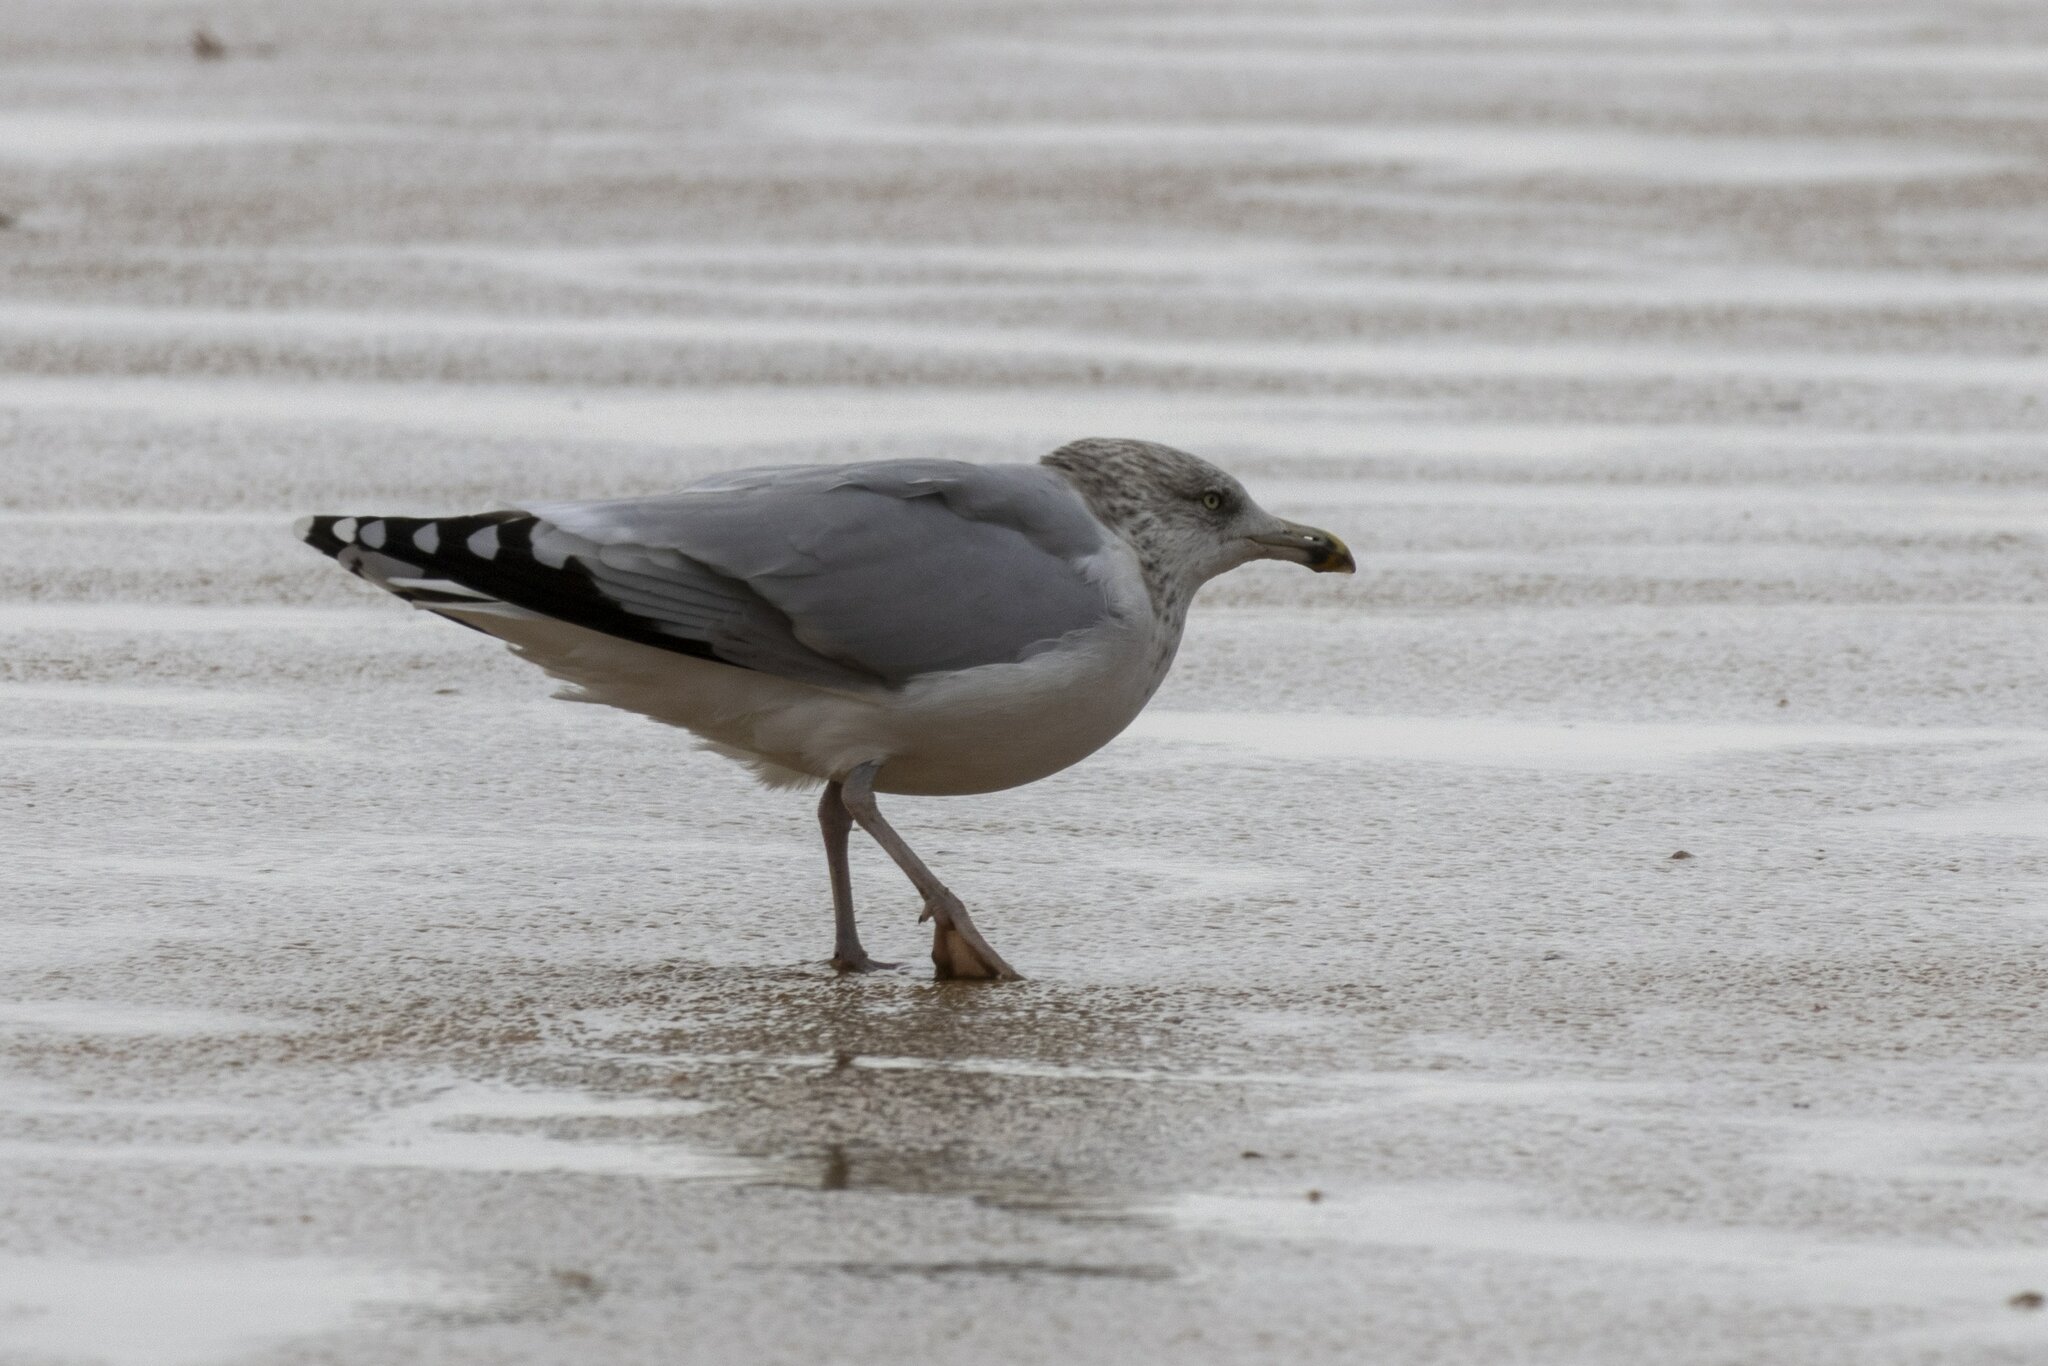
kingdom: Animalia
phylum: Chordata
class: Aves
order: Charadriiformes
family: Laridae
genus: Larus
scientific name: Larus argentatus
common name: Herring gull
